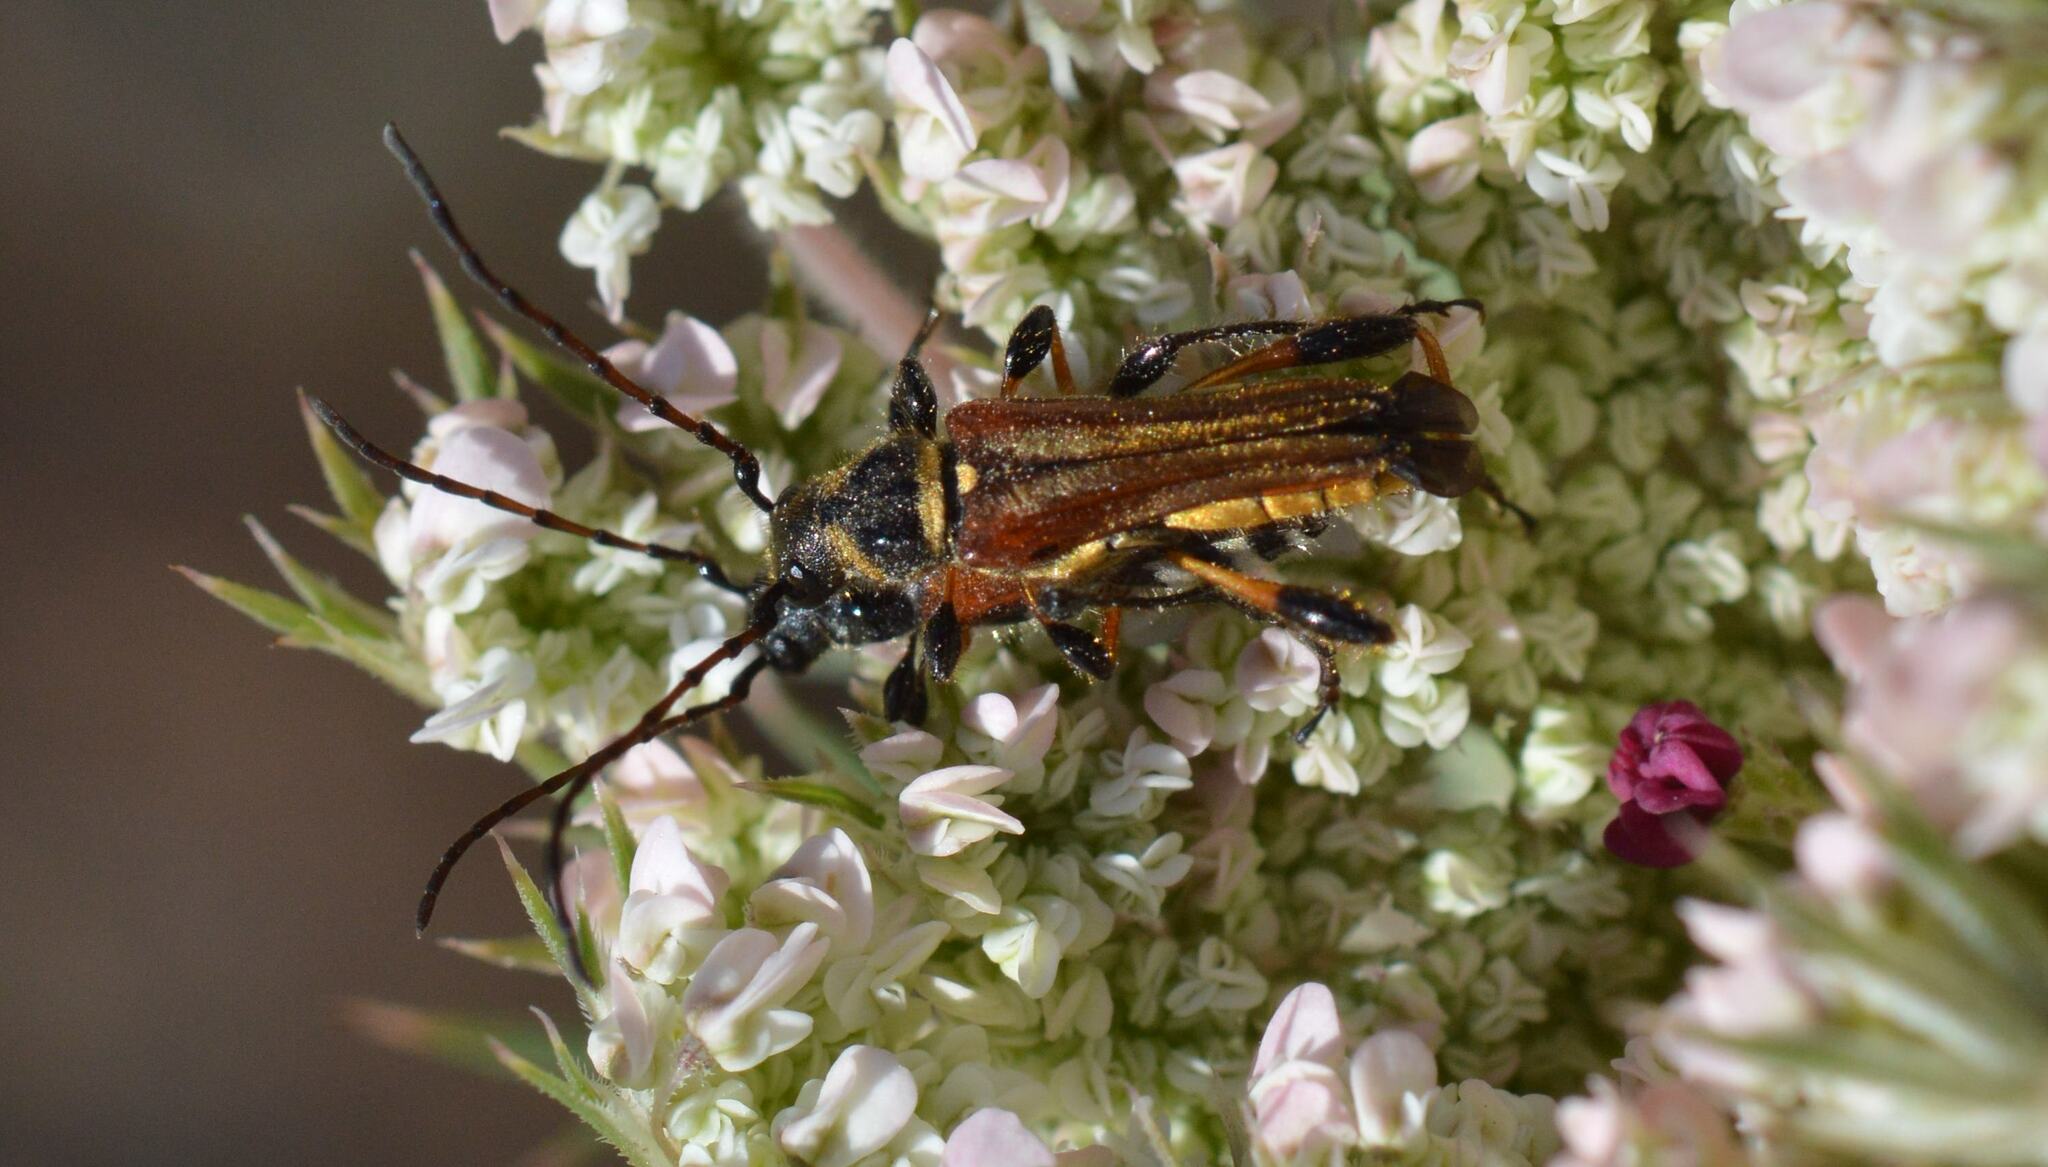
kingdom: Animalia
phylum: Arthropoda
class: Insecta
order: Coleoptera
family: Cerambycidae
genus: Stenopterus
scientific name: Stenopterus ater
